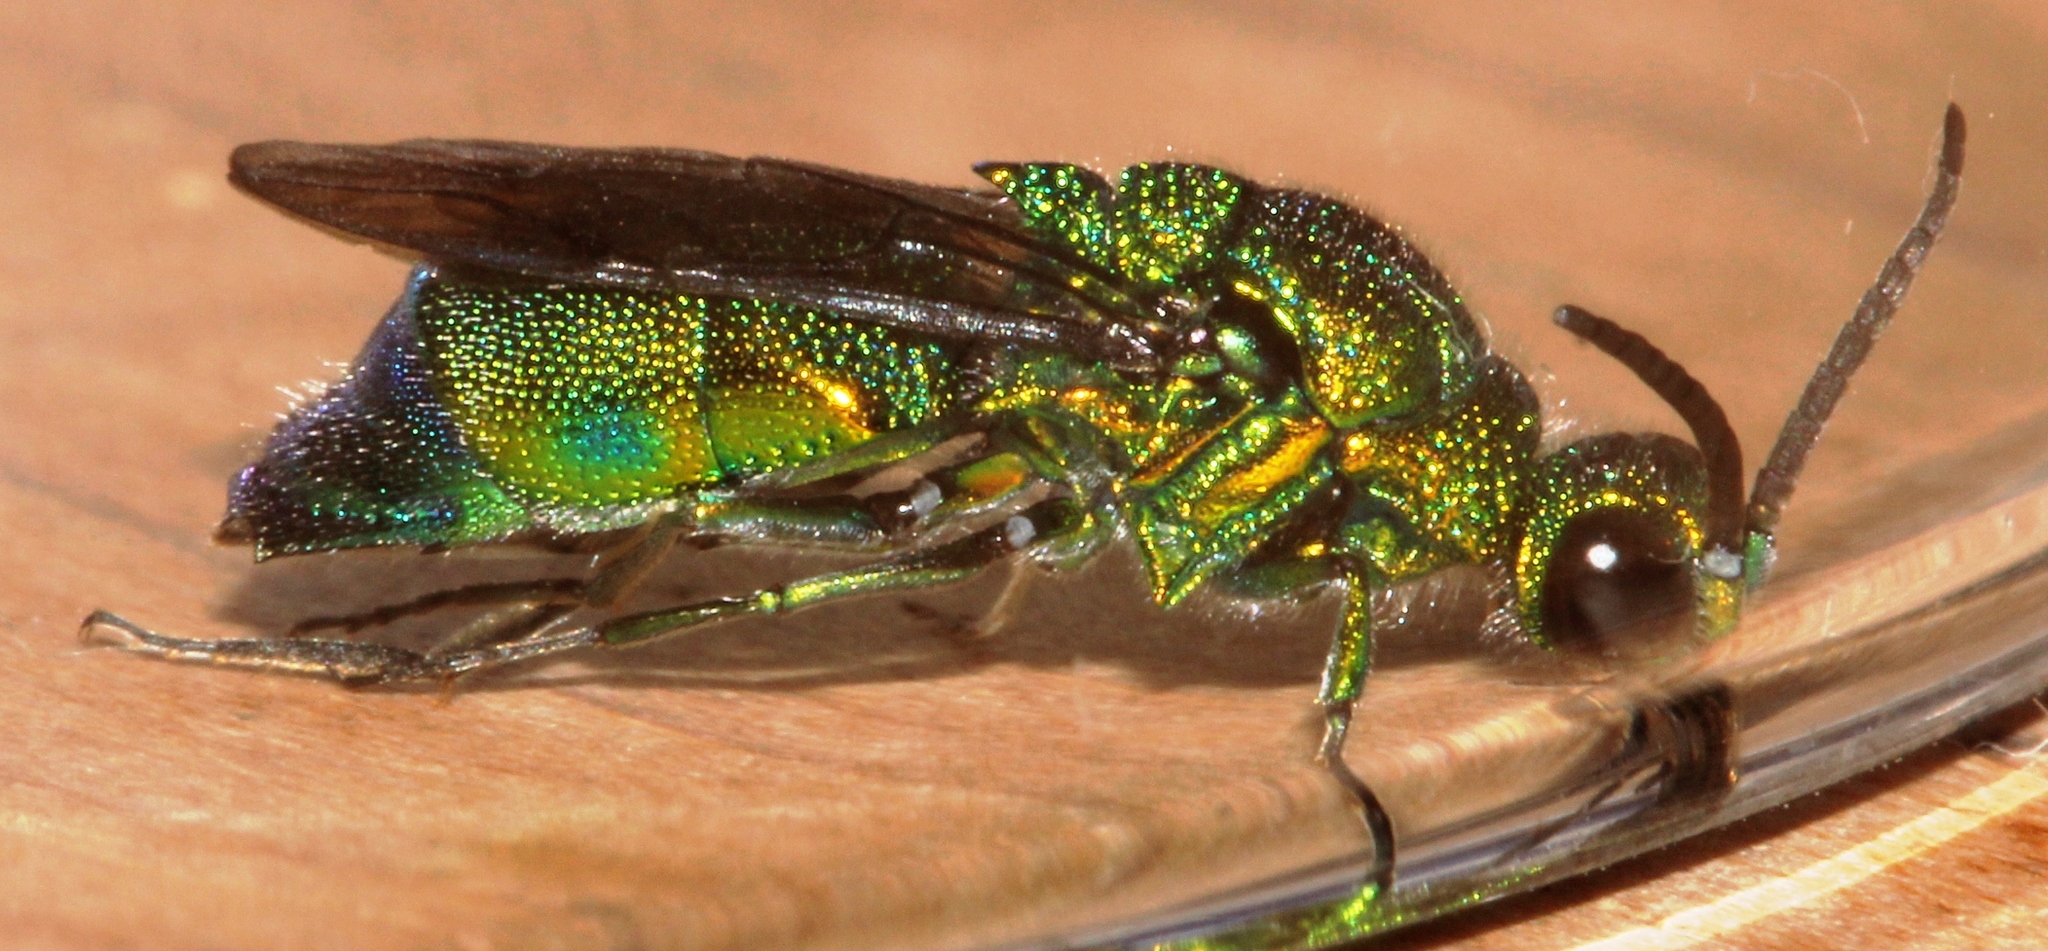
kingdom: Animalia
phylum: Arthropoda
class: Insecta
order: Hymenoptera
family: Chrysididae
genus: Chrysis
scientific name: Chrysis lincea
